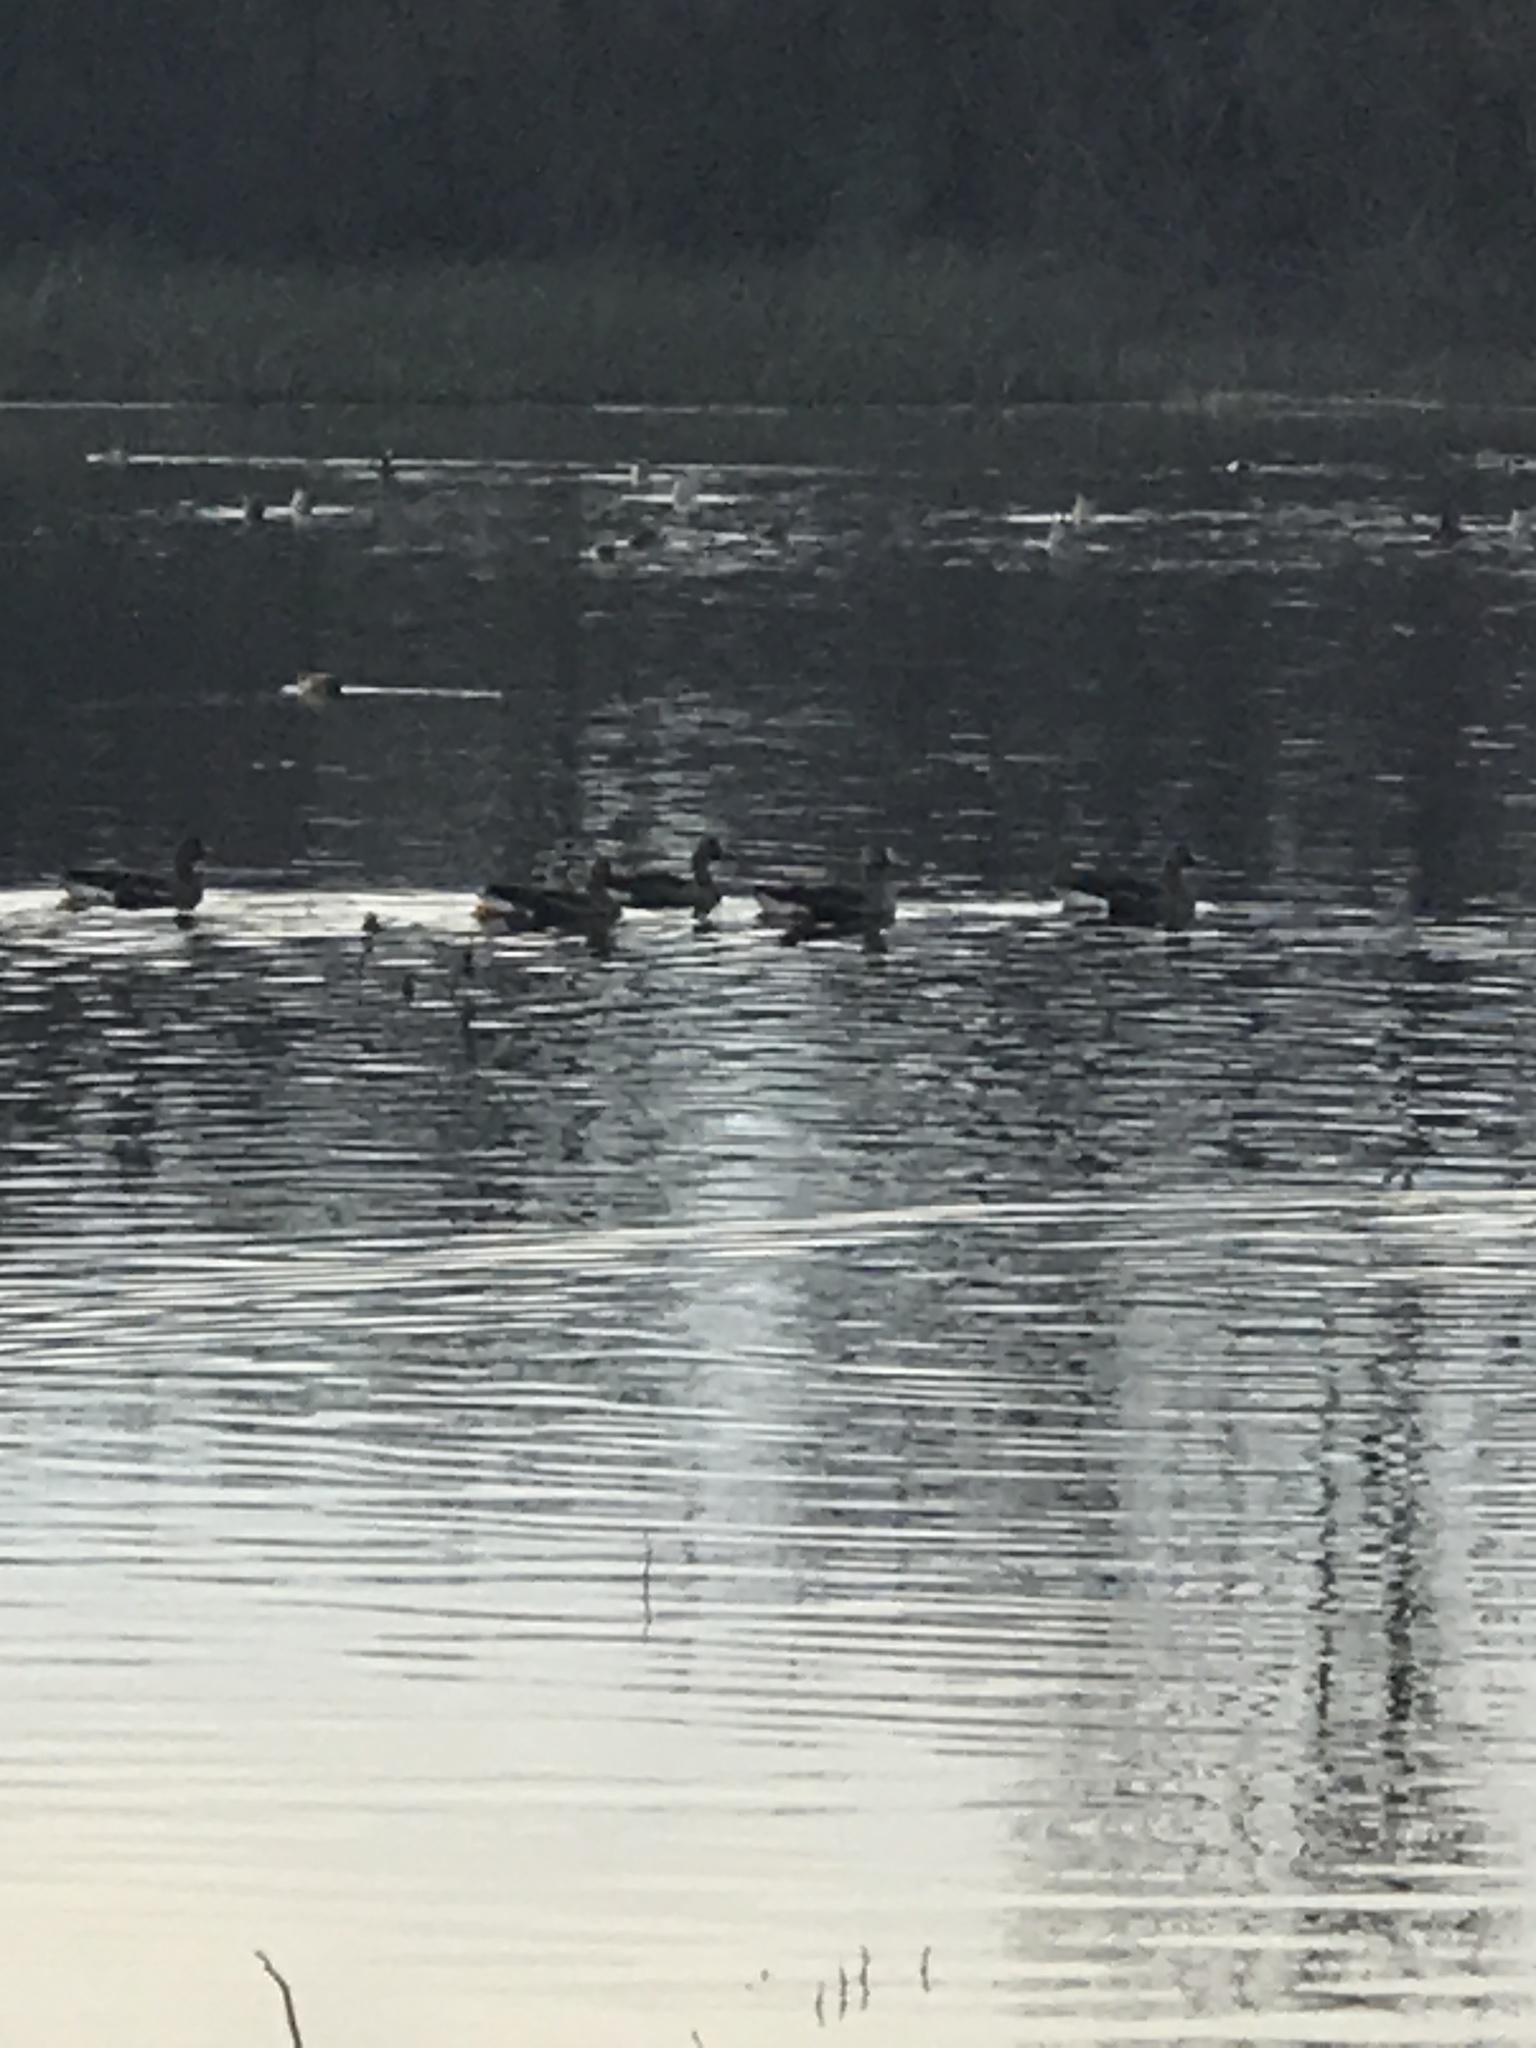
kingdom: Animalia
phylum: Chordata
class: Aves
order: Anseriformes
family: Anatidae
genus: Anser
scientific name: Anser albifrons
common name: Greater white-fronted goose
